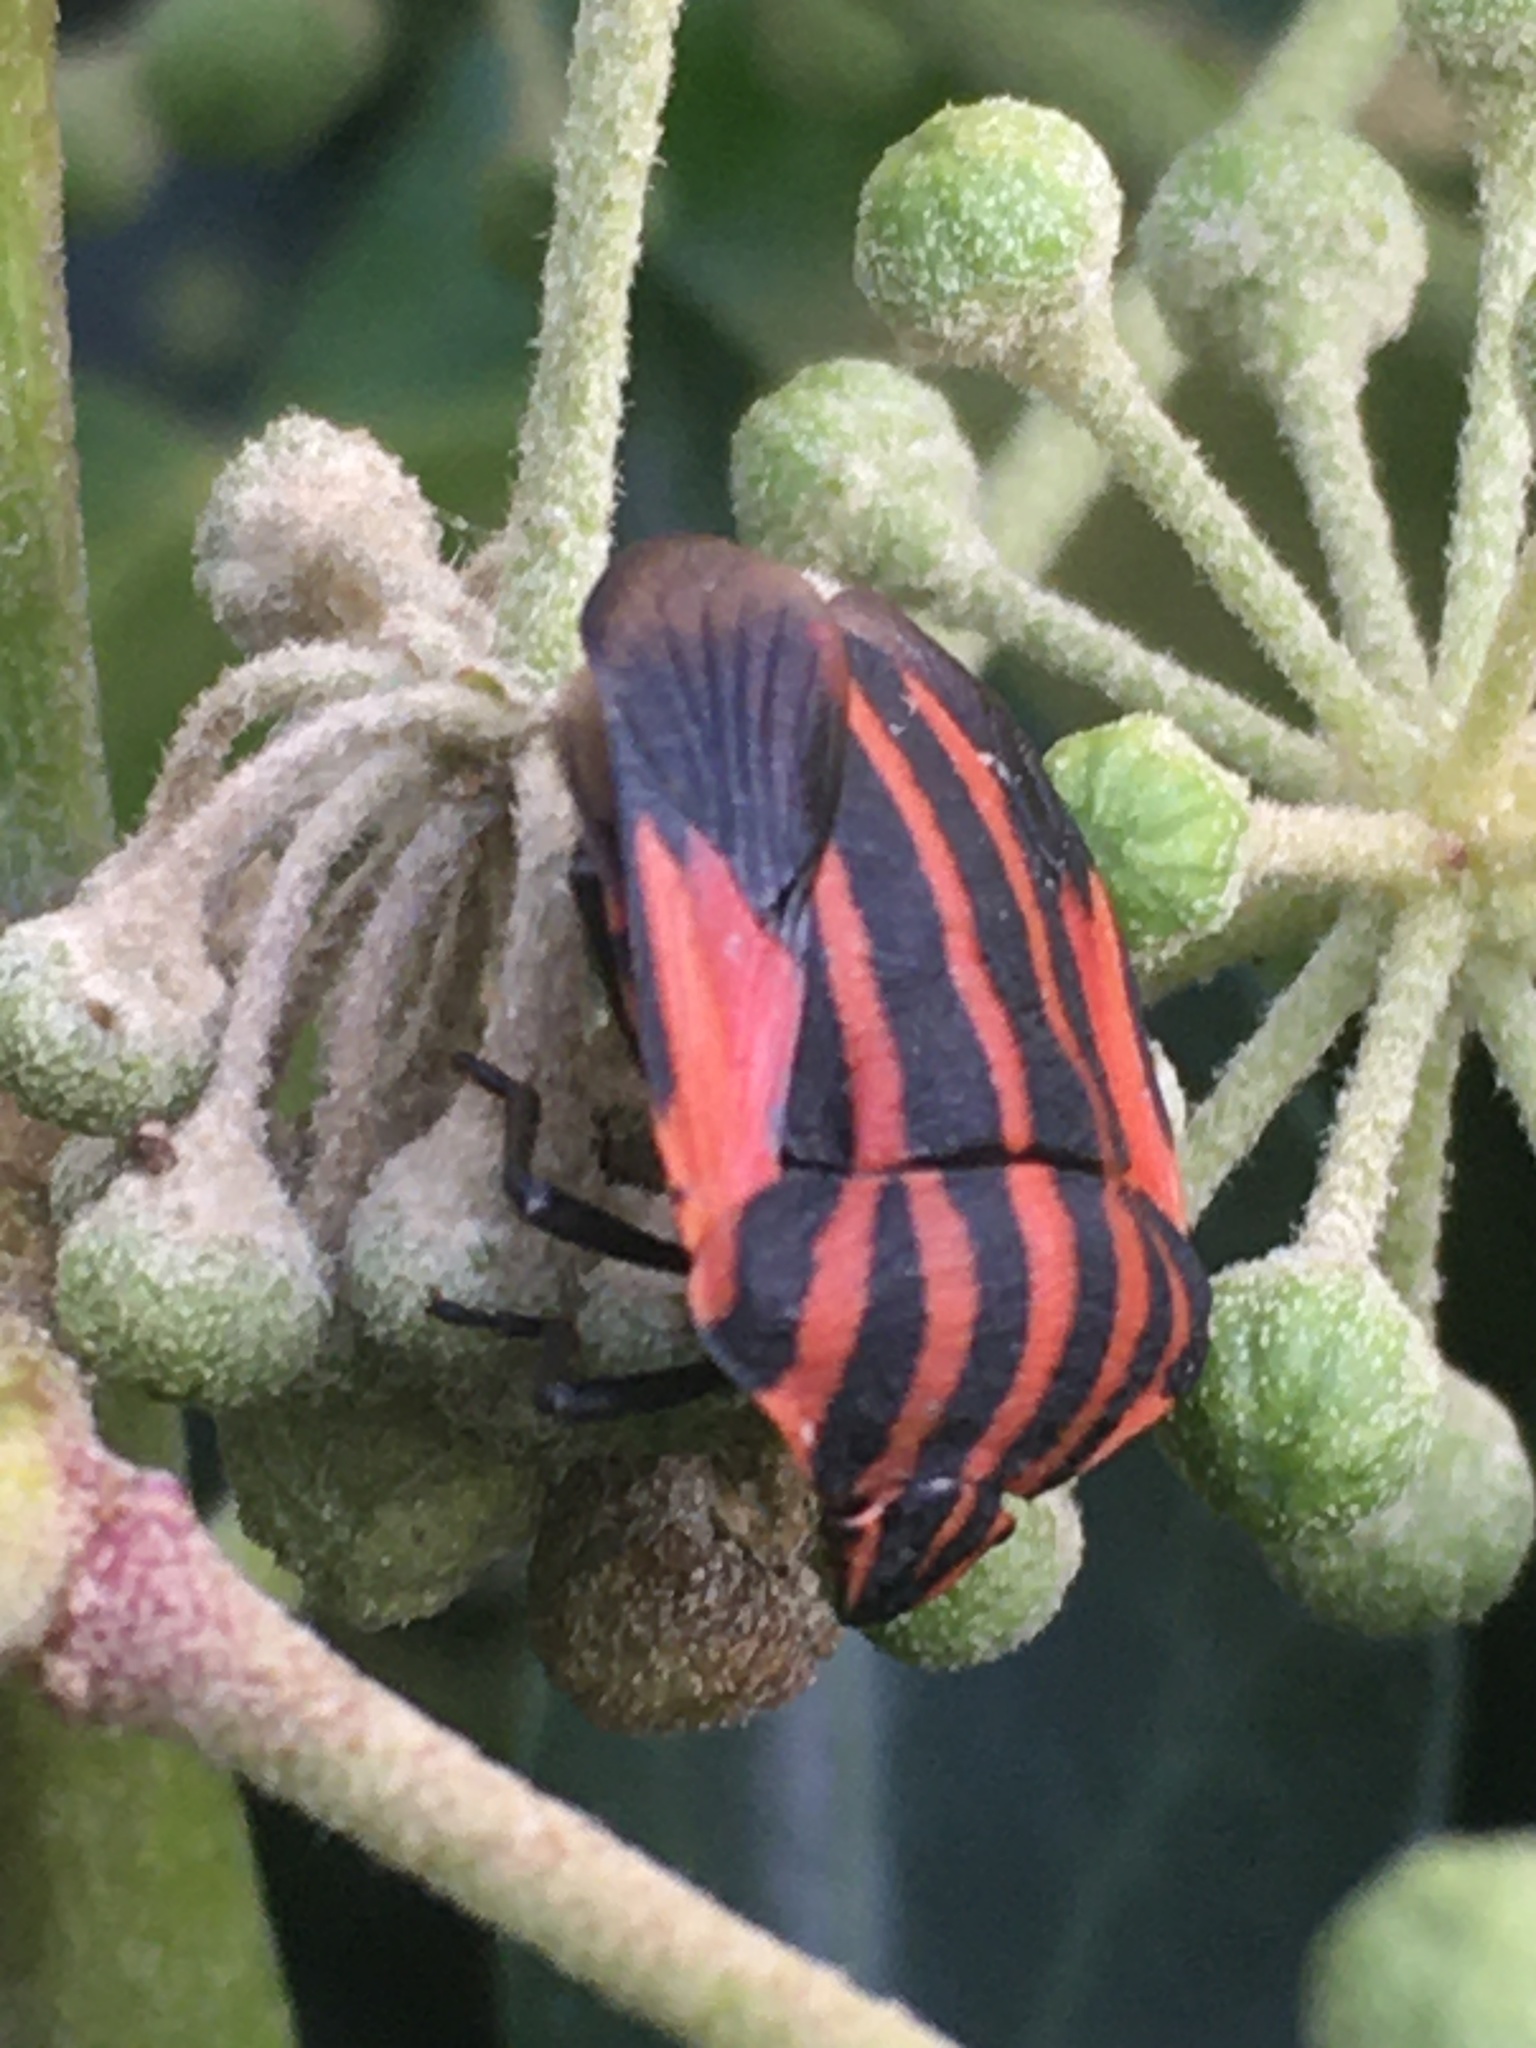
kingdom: Animalia
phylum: Arthropoda
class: Insecta
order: Hemiptera
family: Pentatomidae
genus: Graphosoma
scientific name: Graphosoma italicum
